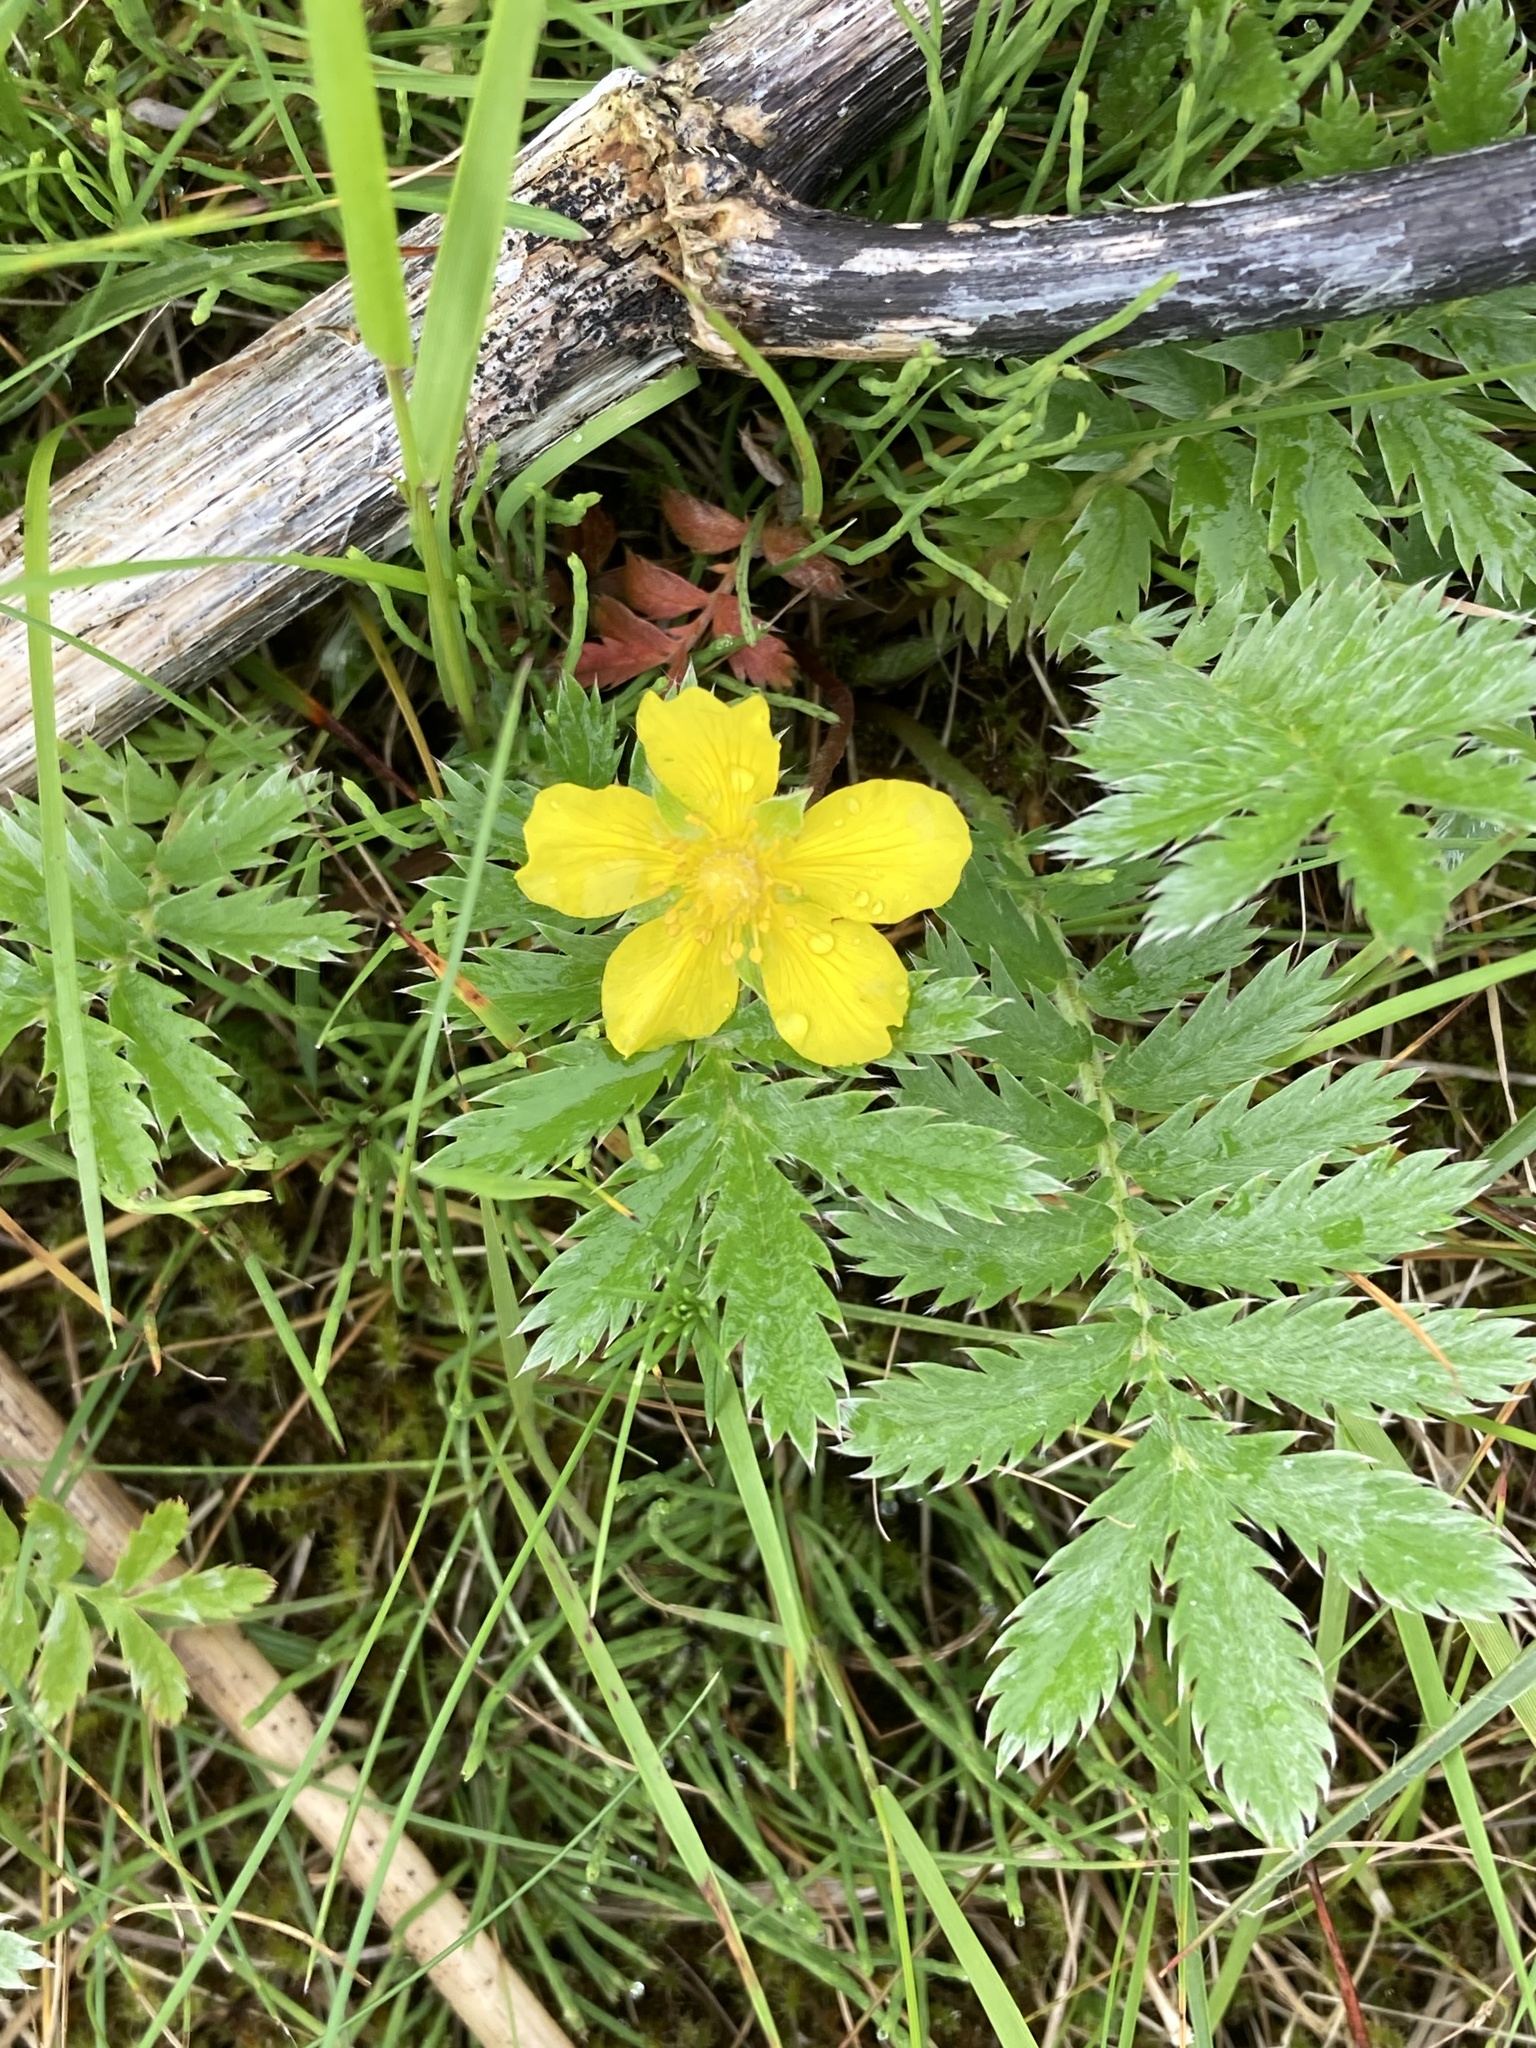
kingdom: Plantae
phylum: Tracheophyta
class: Magnoliopsida
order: Rosales
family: Rosaceae
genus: Argentina
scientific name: Argentina anserina
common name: Common silverweed
